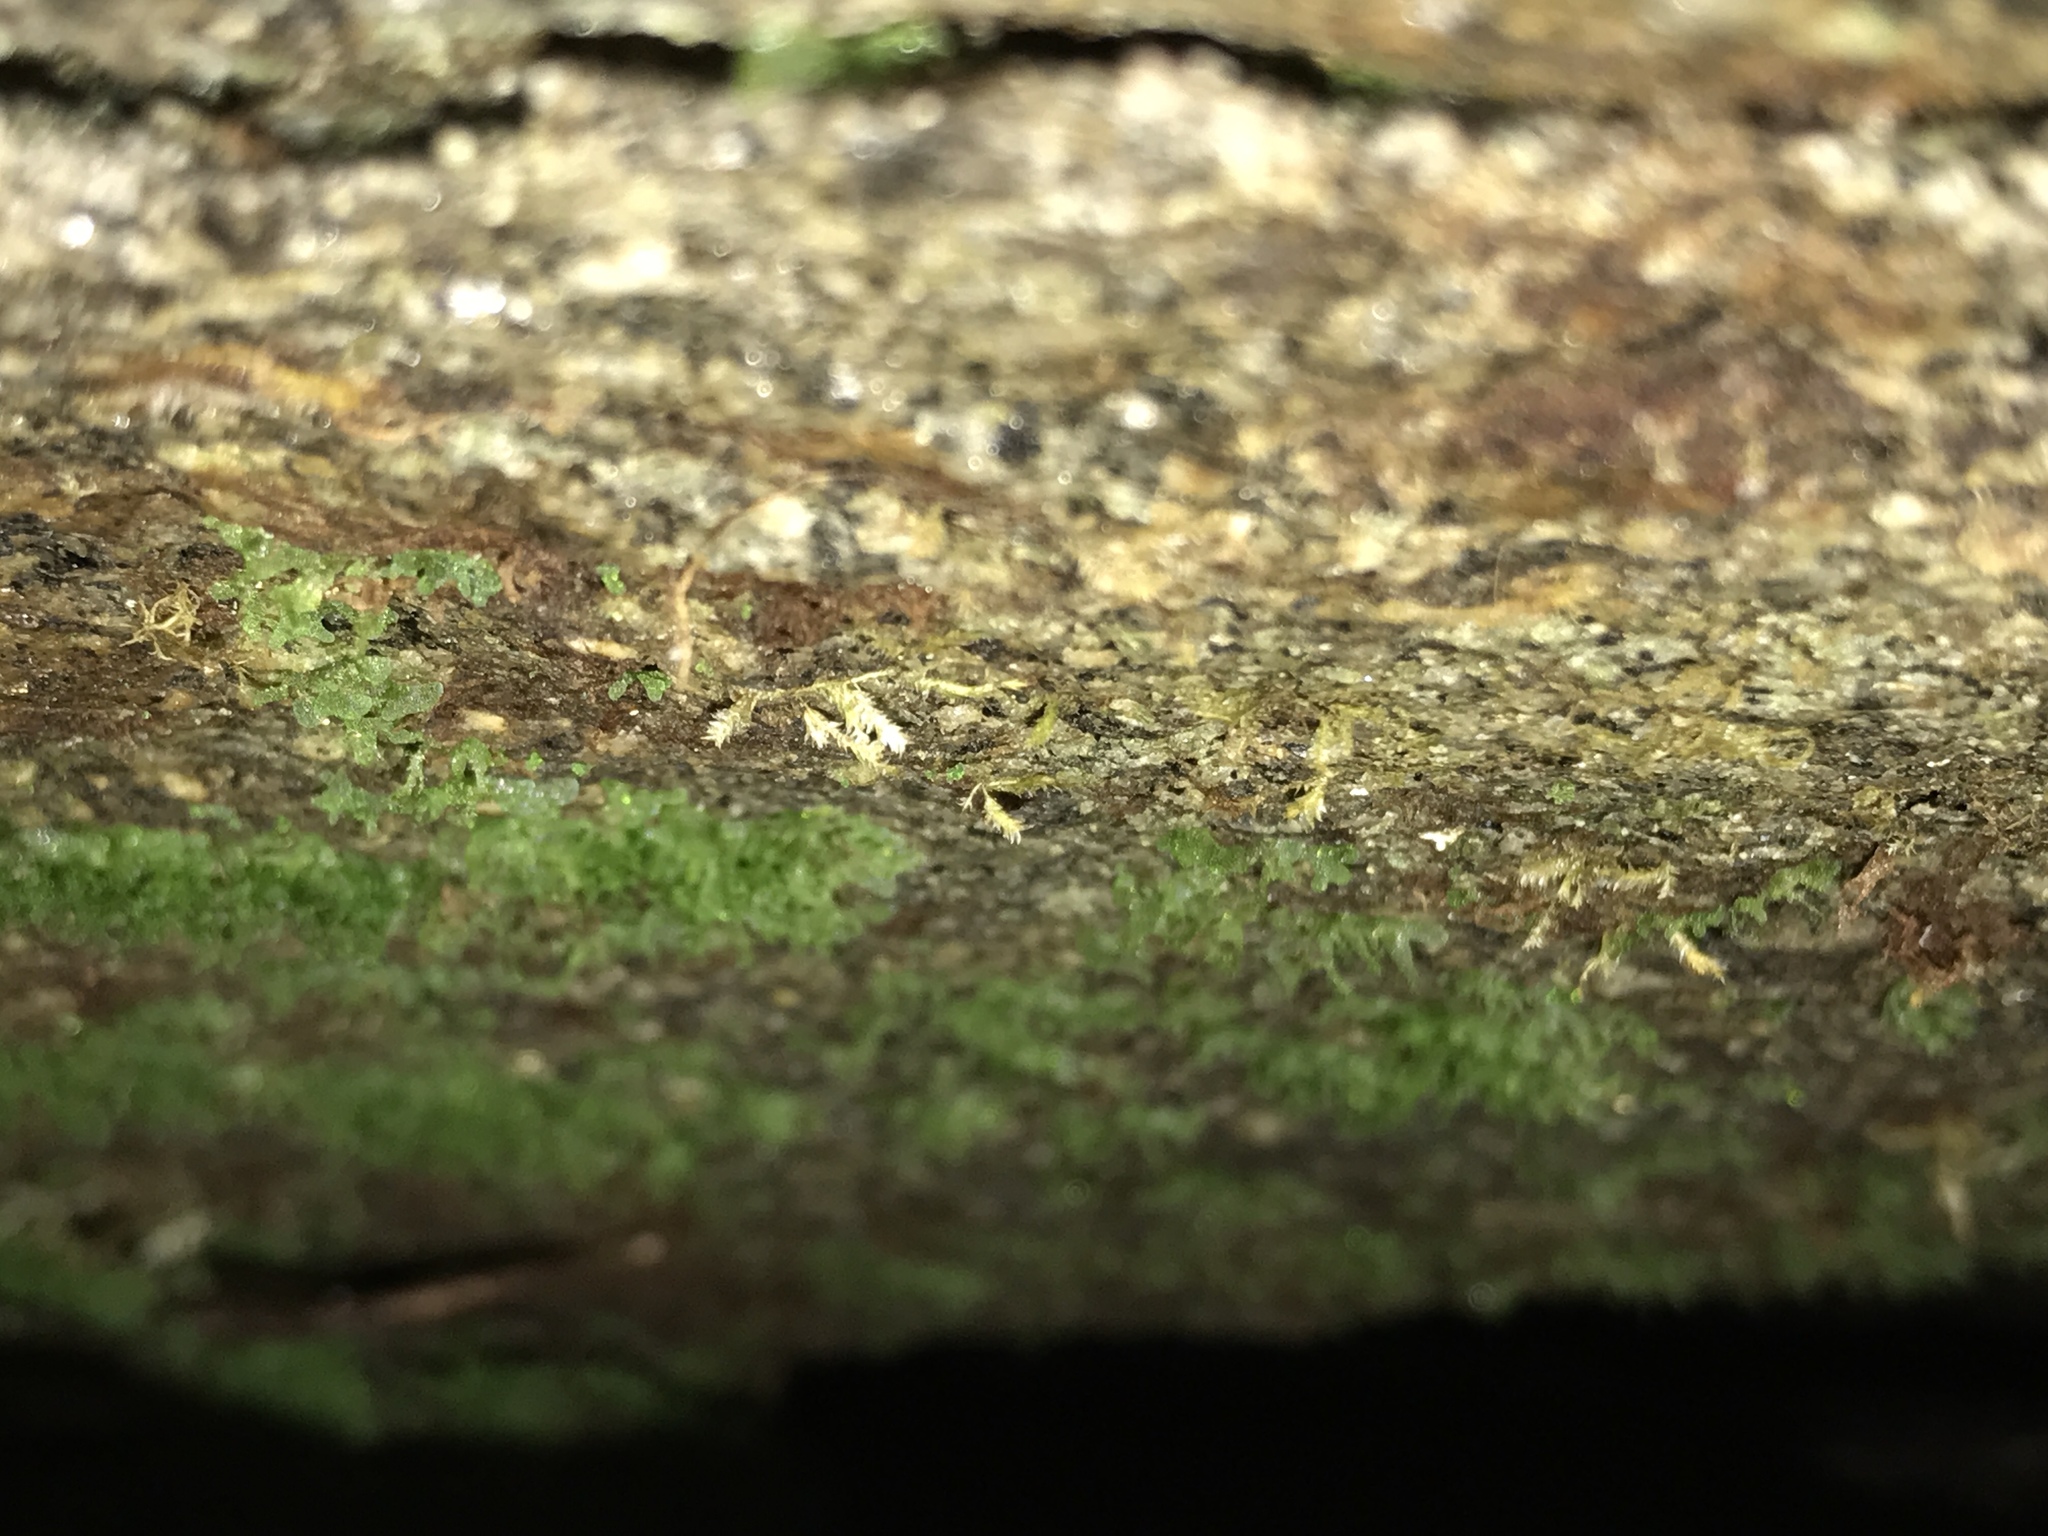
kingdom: Plantae
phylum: Tracheophyta
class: Polypodiopsida
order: Polypodiales
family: Pteridaceae
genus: Vittaria
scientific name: Vittaria appalachiana
